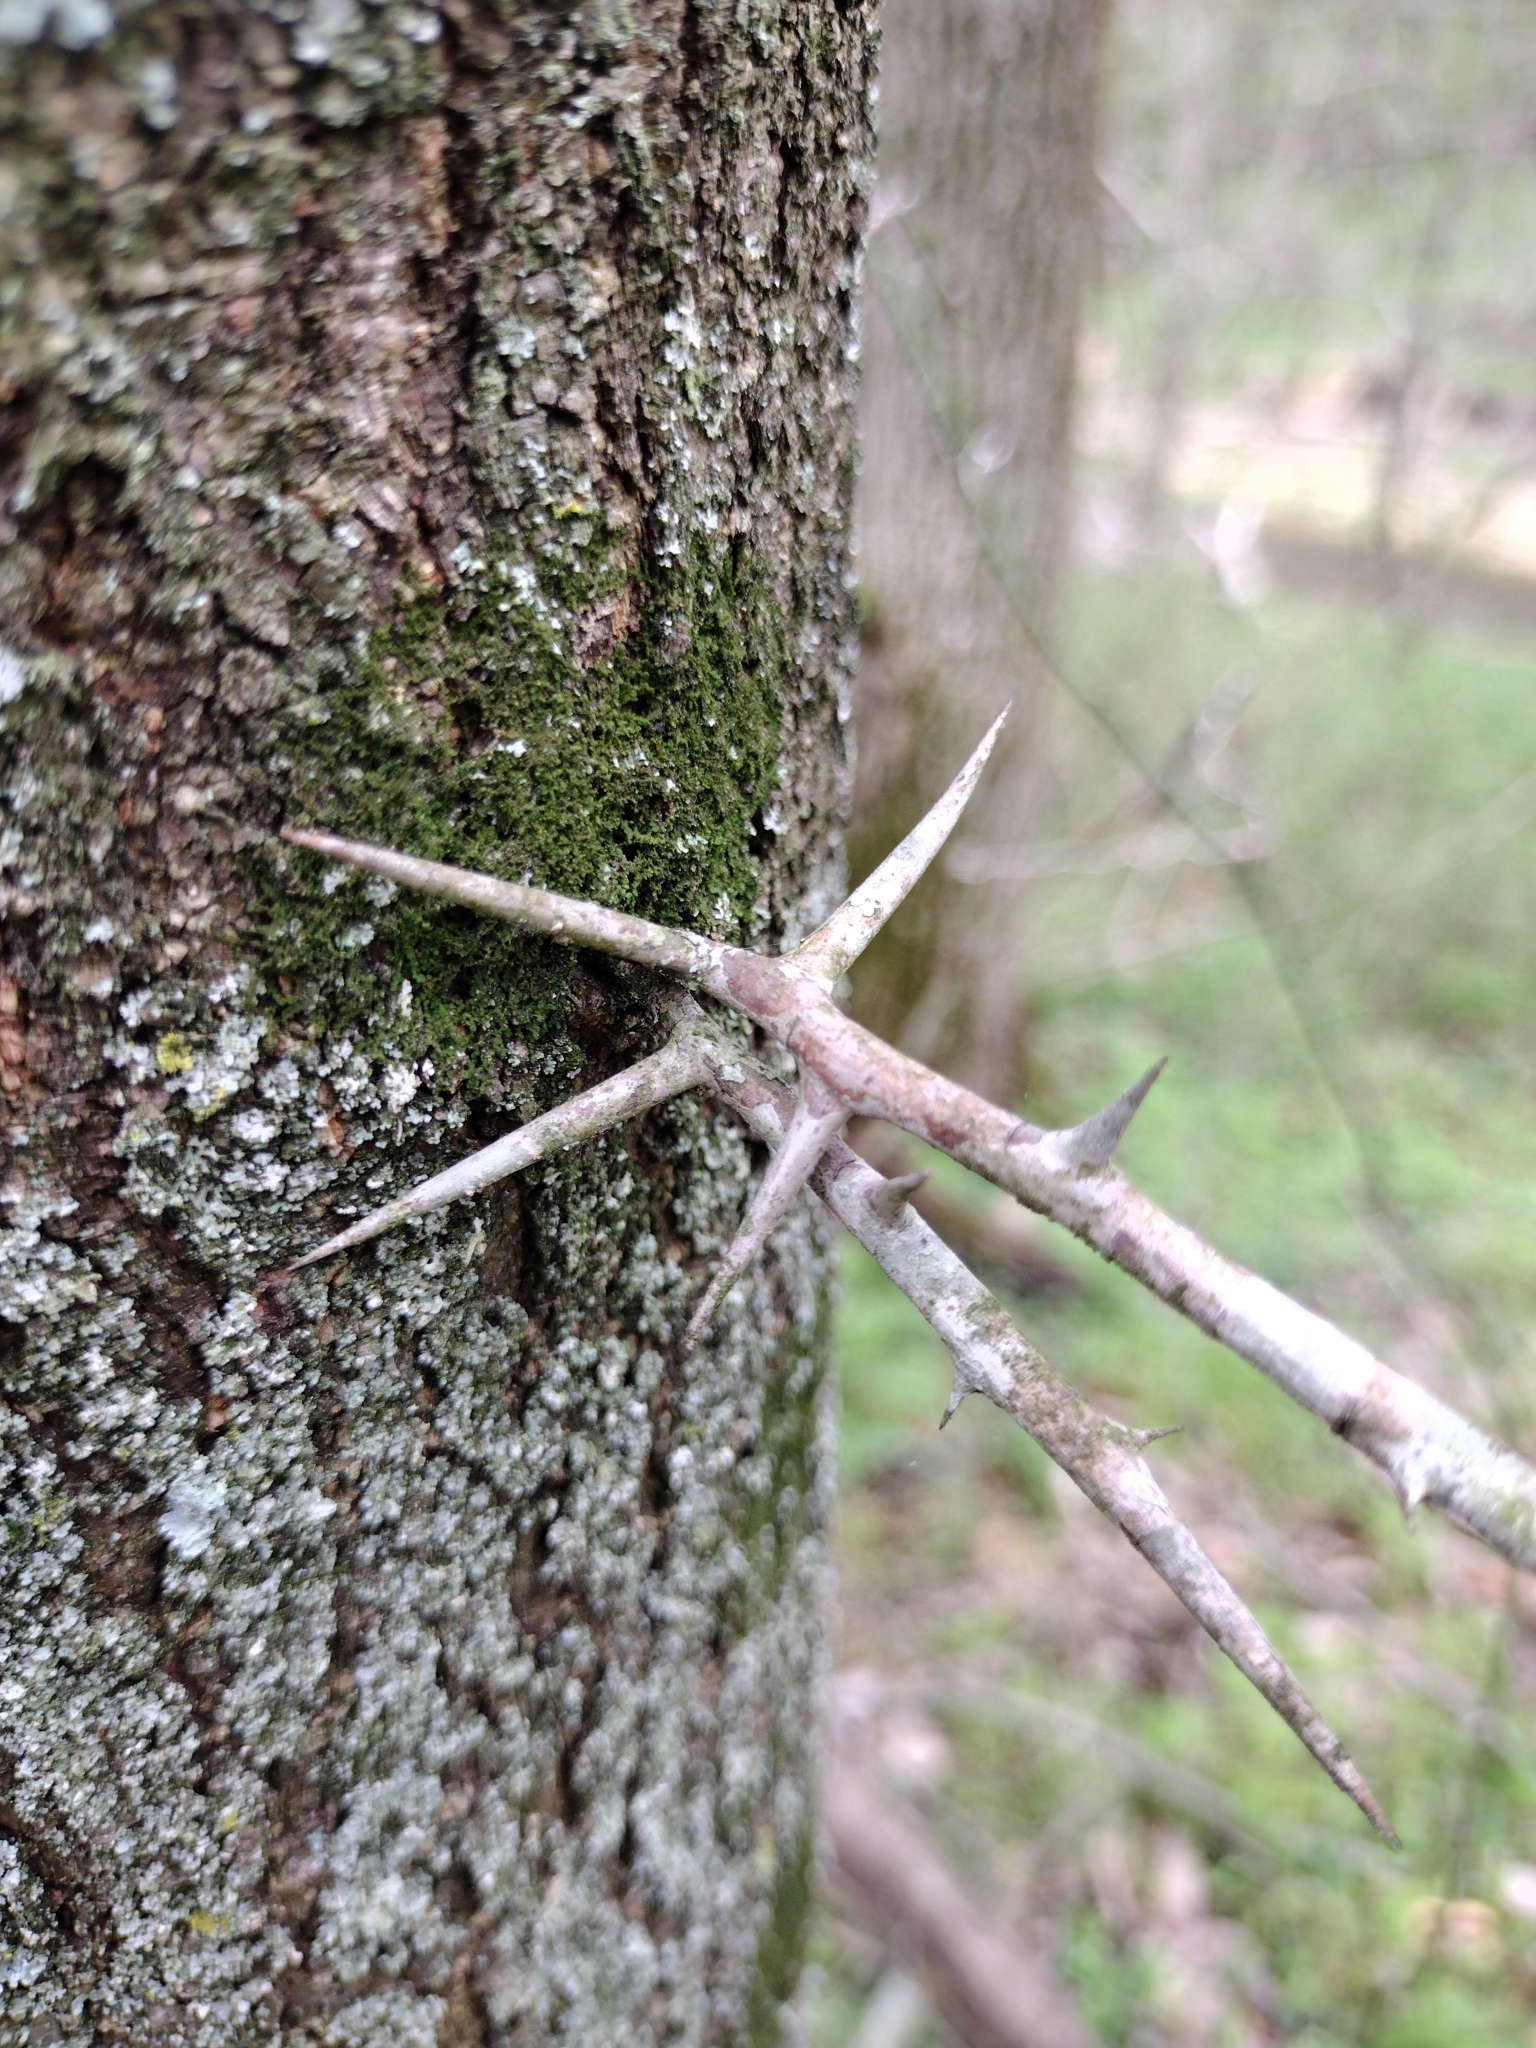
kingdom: Plantae
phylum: Tracheophyta
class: Magnoliopsida
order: Fabales
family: Fabaceae
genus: Gleditsia
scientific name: Gleditsia triacanthos
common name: Common honeylocust
